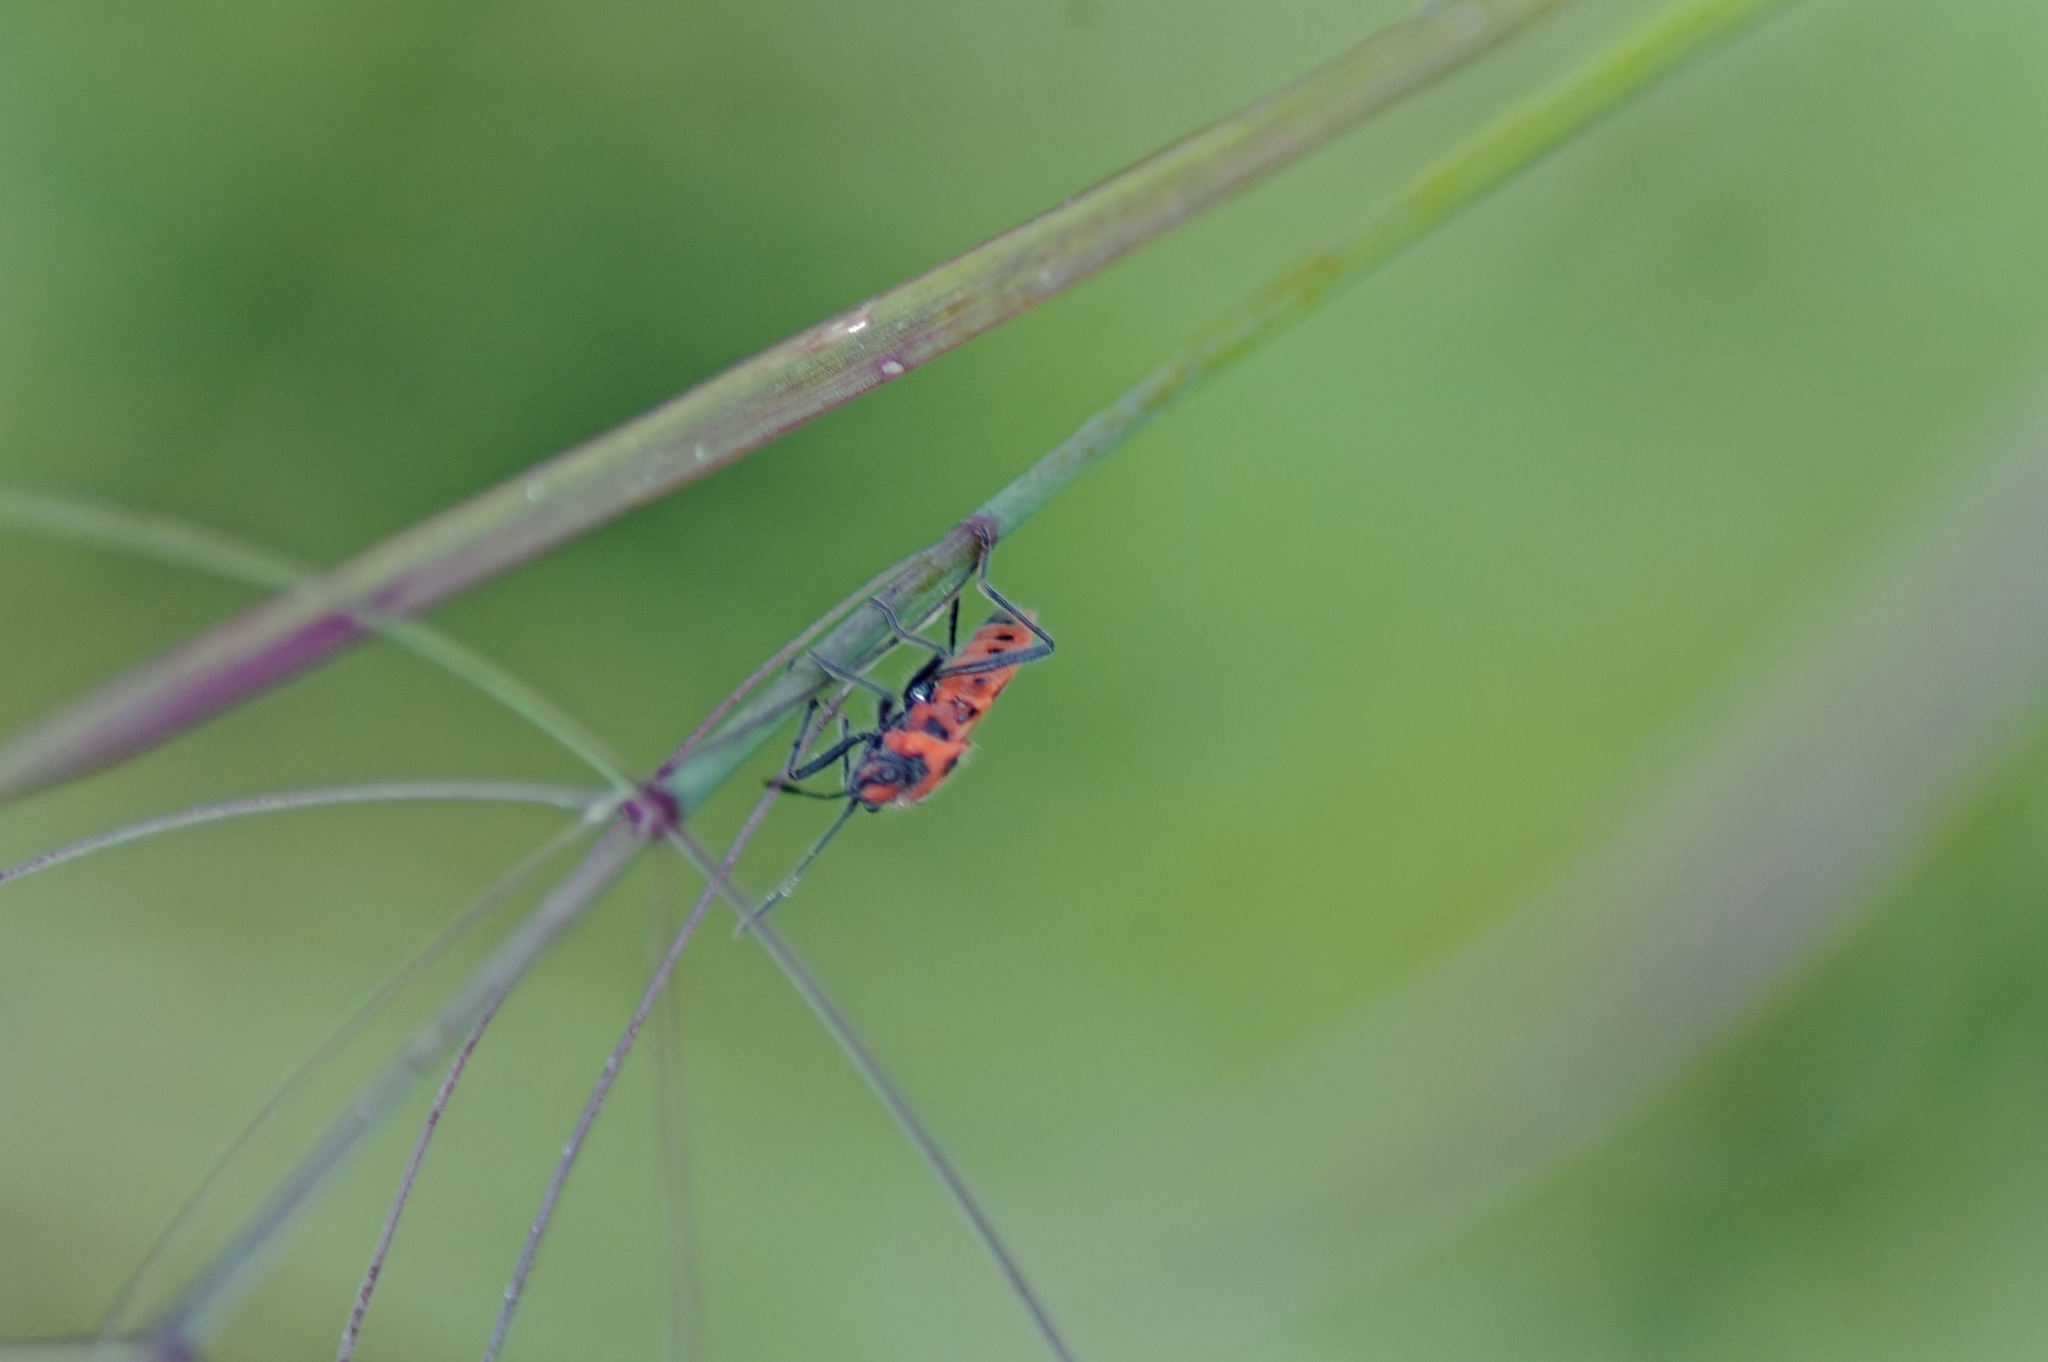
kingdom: Animalia
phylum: Arthropoda
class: Insecta
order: Hemiptera
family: Rhopalidae
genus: Corizus
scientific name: Corizus hyoscyami
